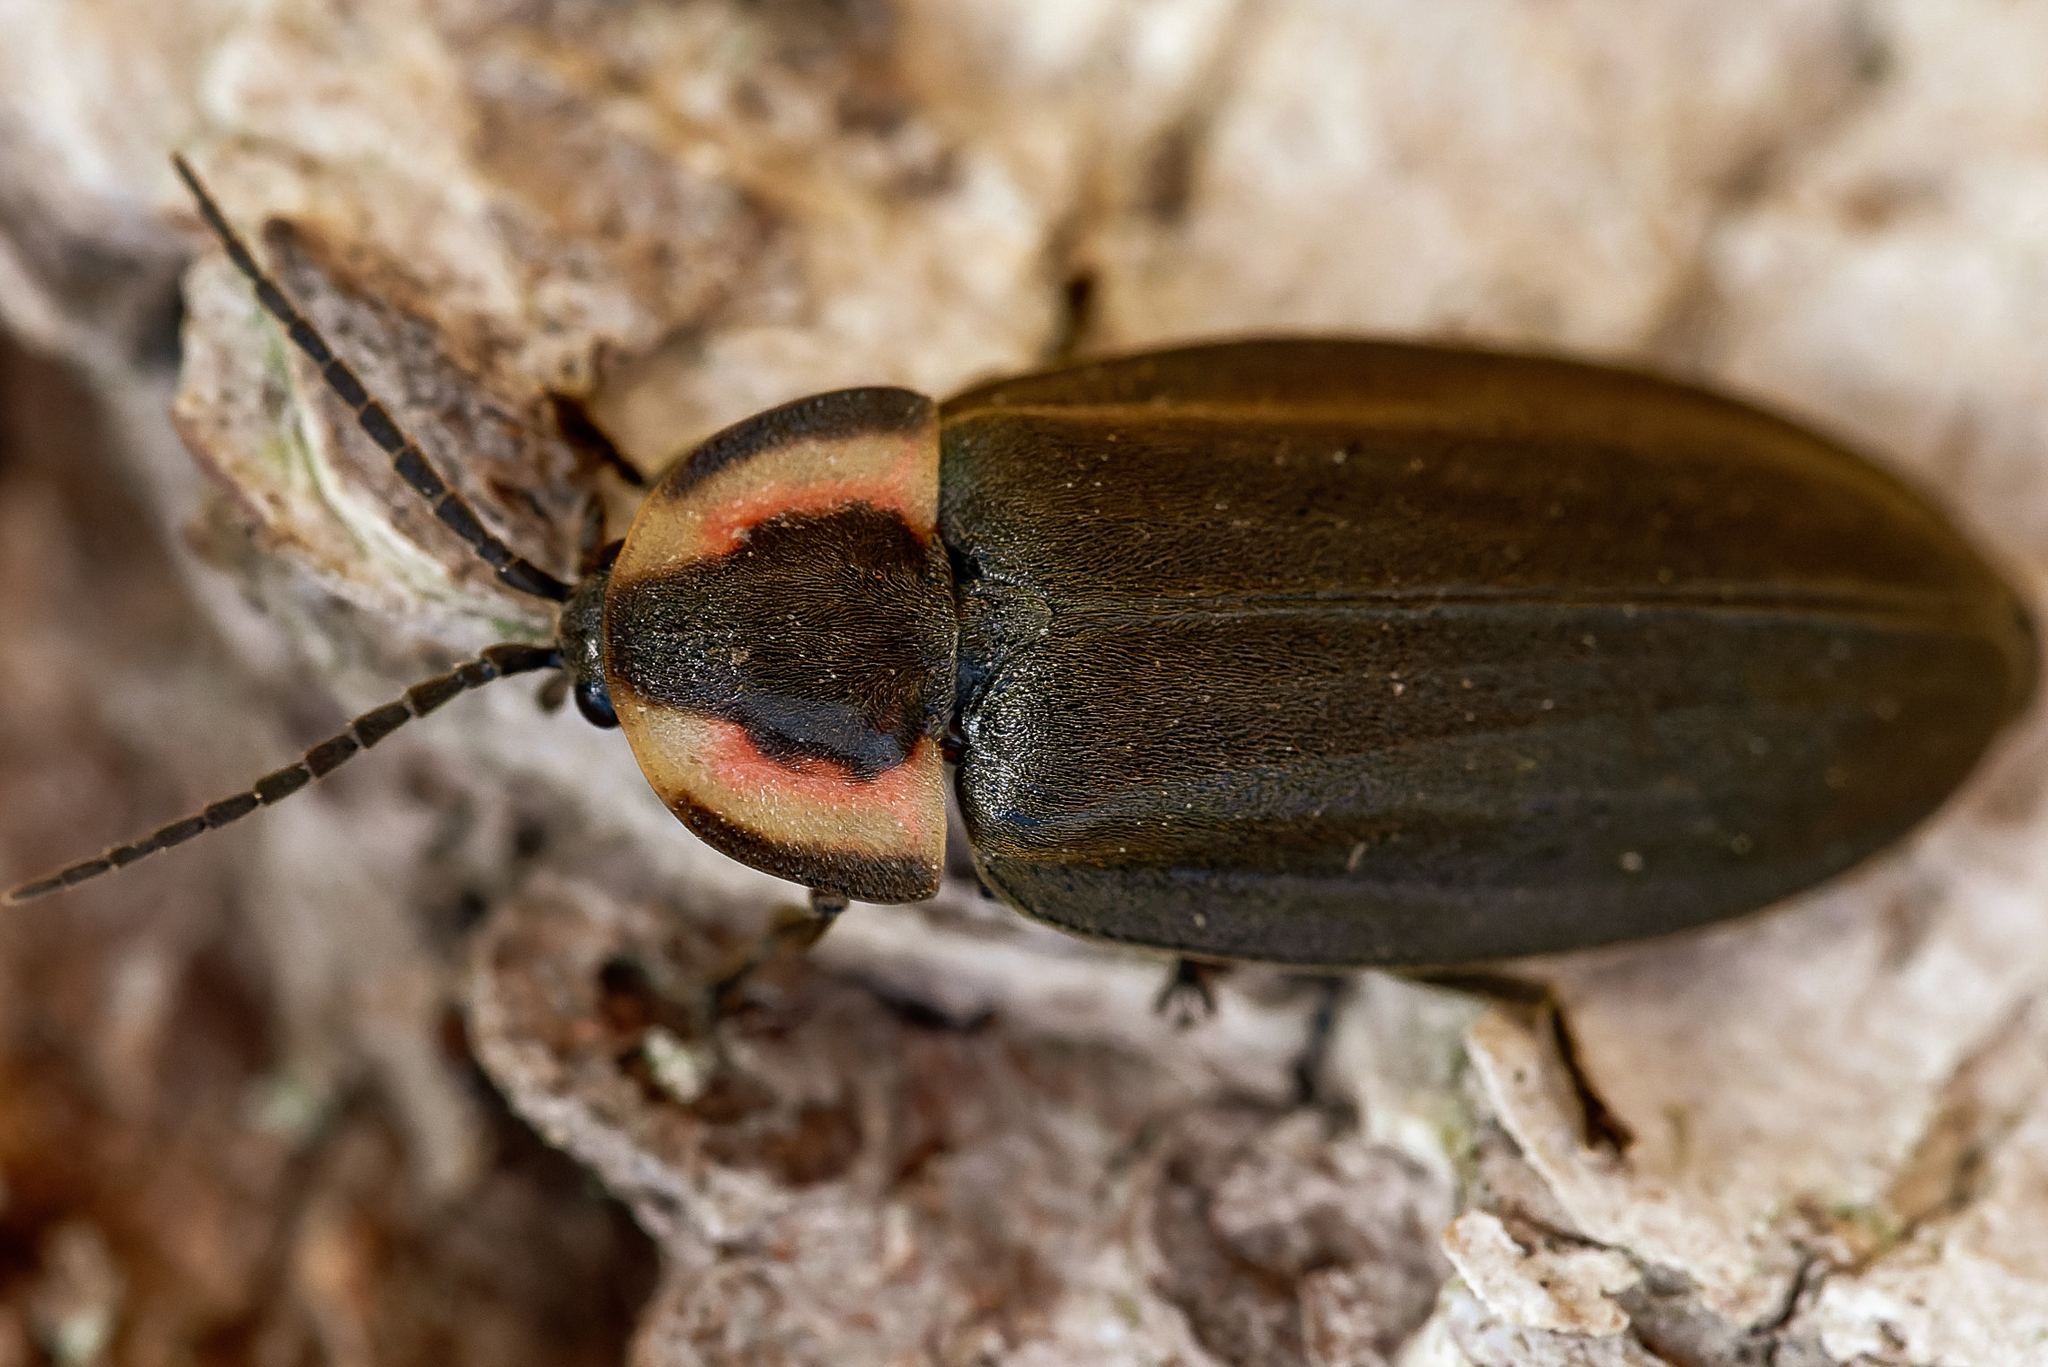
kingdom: Animalia
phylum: Arthropoda
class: Insecta
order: Coleoptera
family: Lampyridae
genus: Photinus
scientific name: Photinus corrusca
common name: Winter firefly
